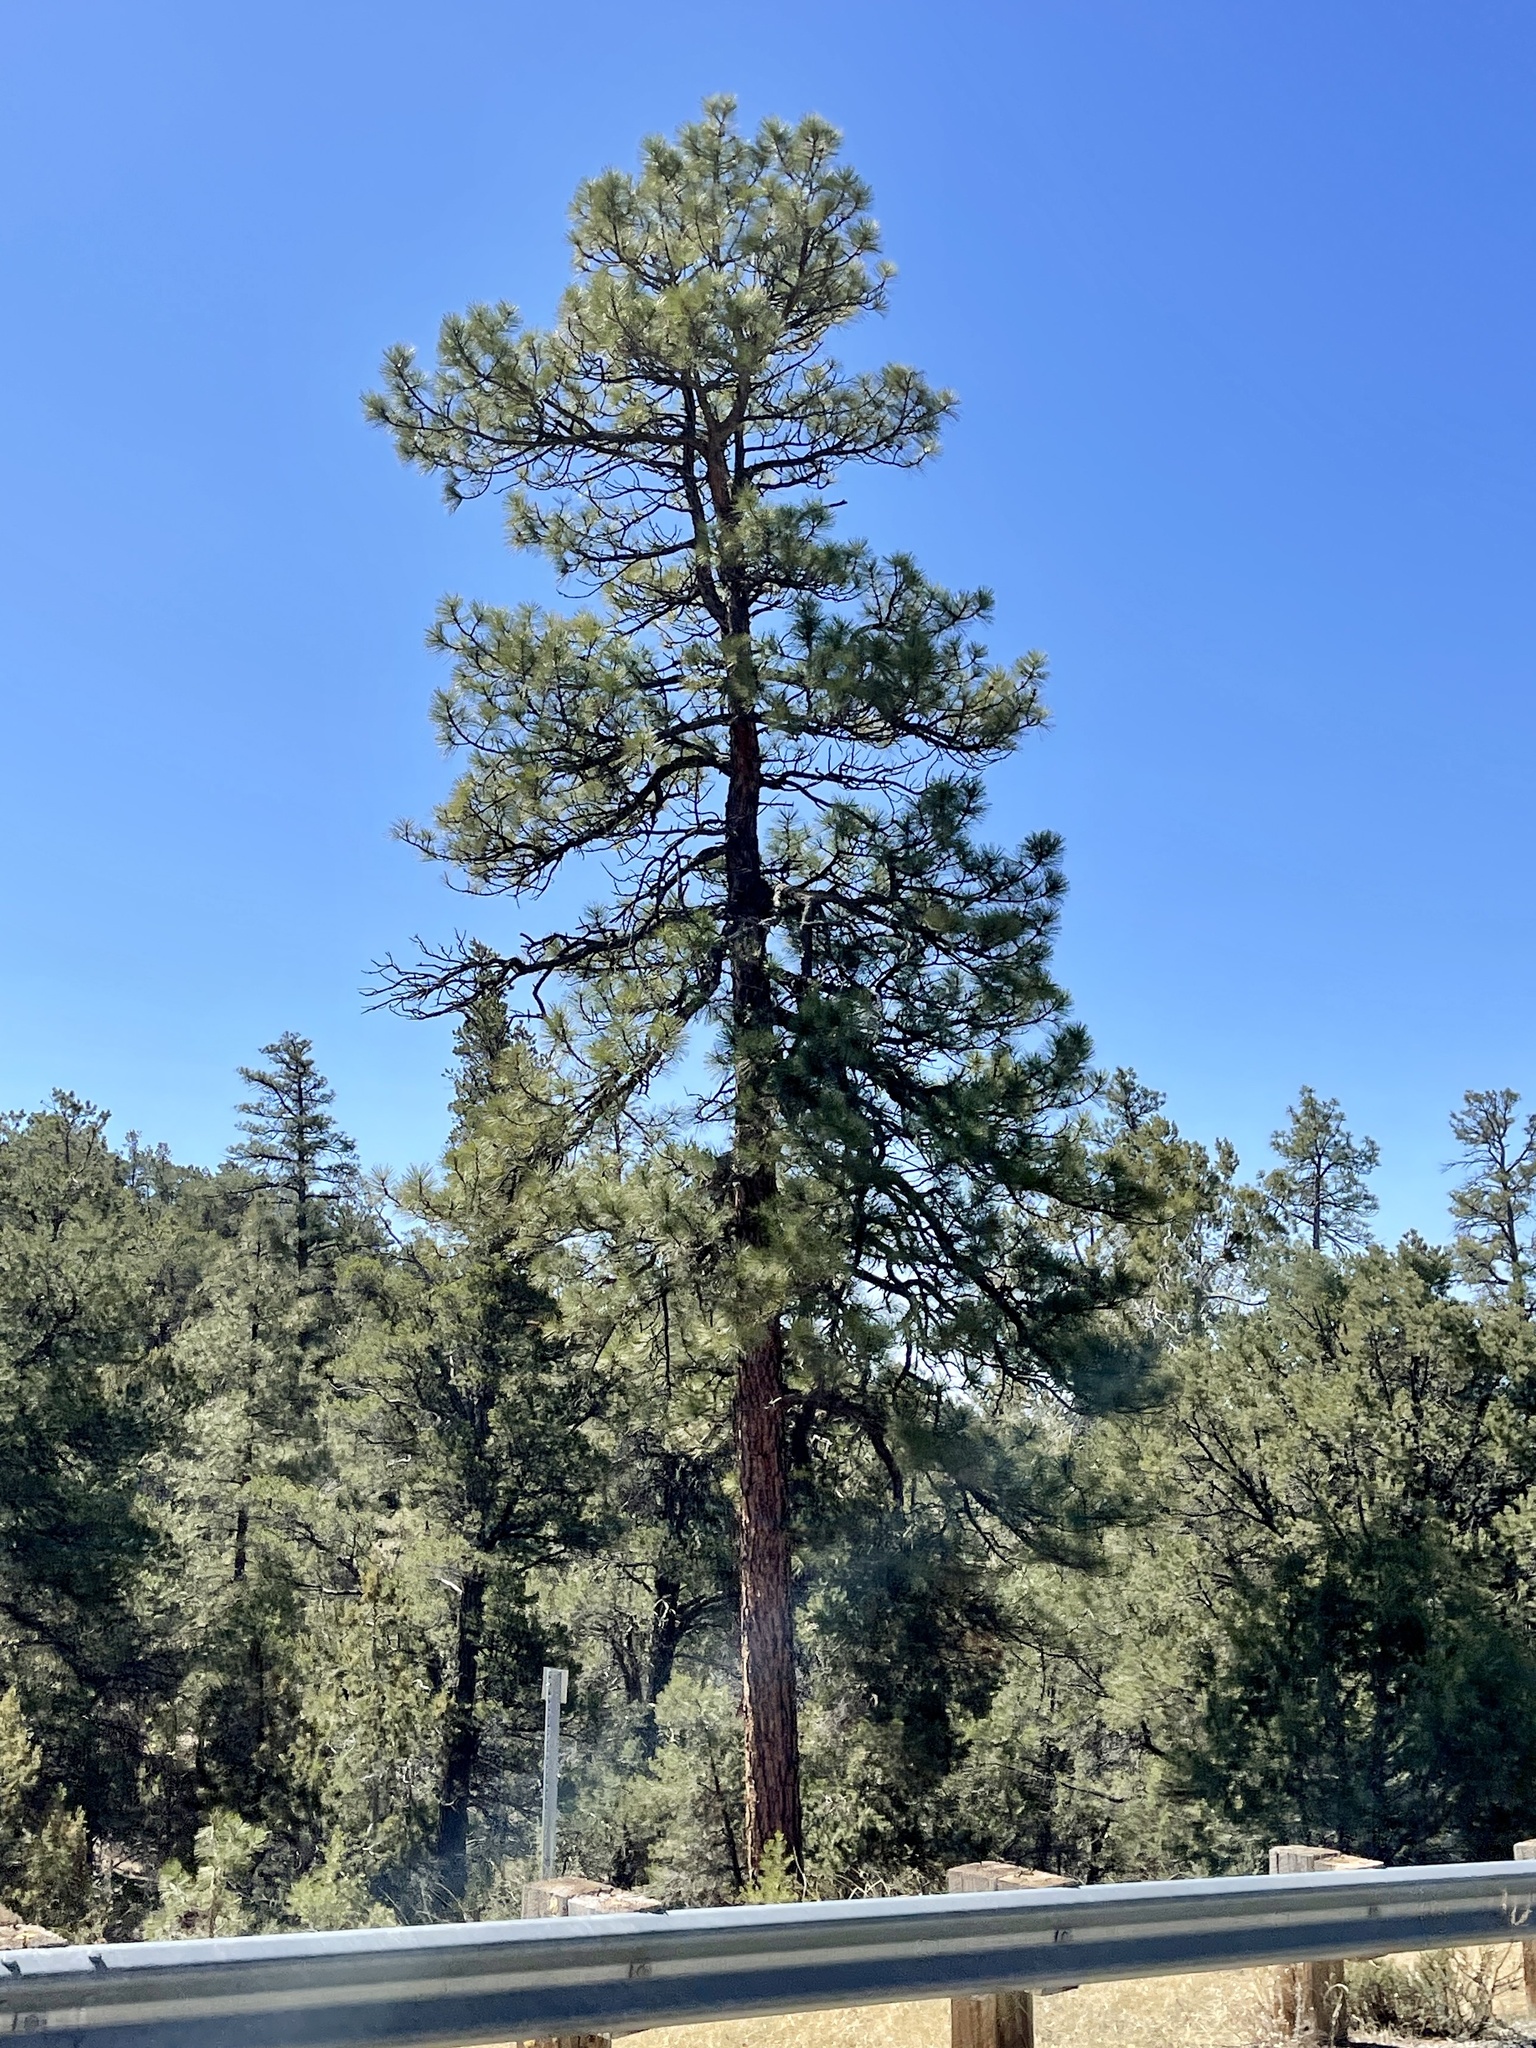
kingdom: Plantae
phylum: Tracheophyta
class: Pinopsida
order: Pinales
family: Pinaceae
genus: Pinus
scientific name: Pinus ponderosa
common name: Western yellow-pine
